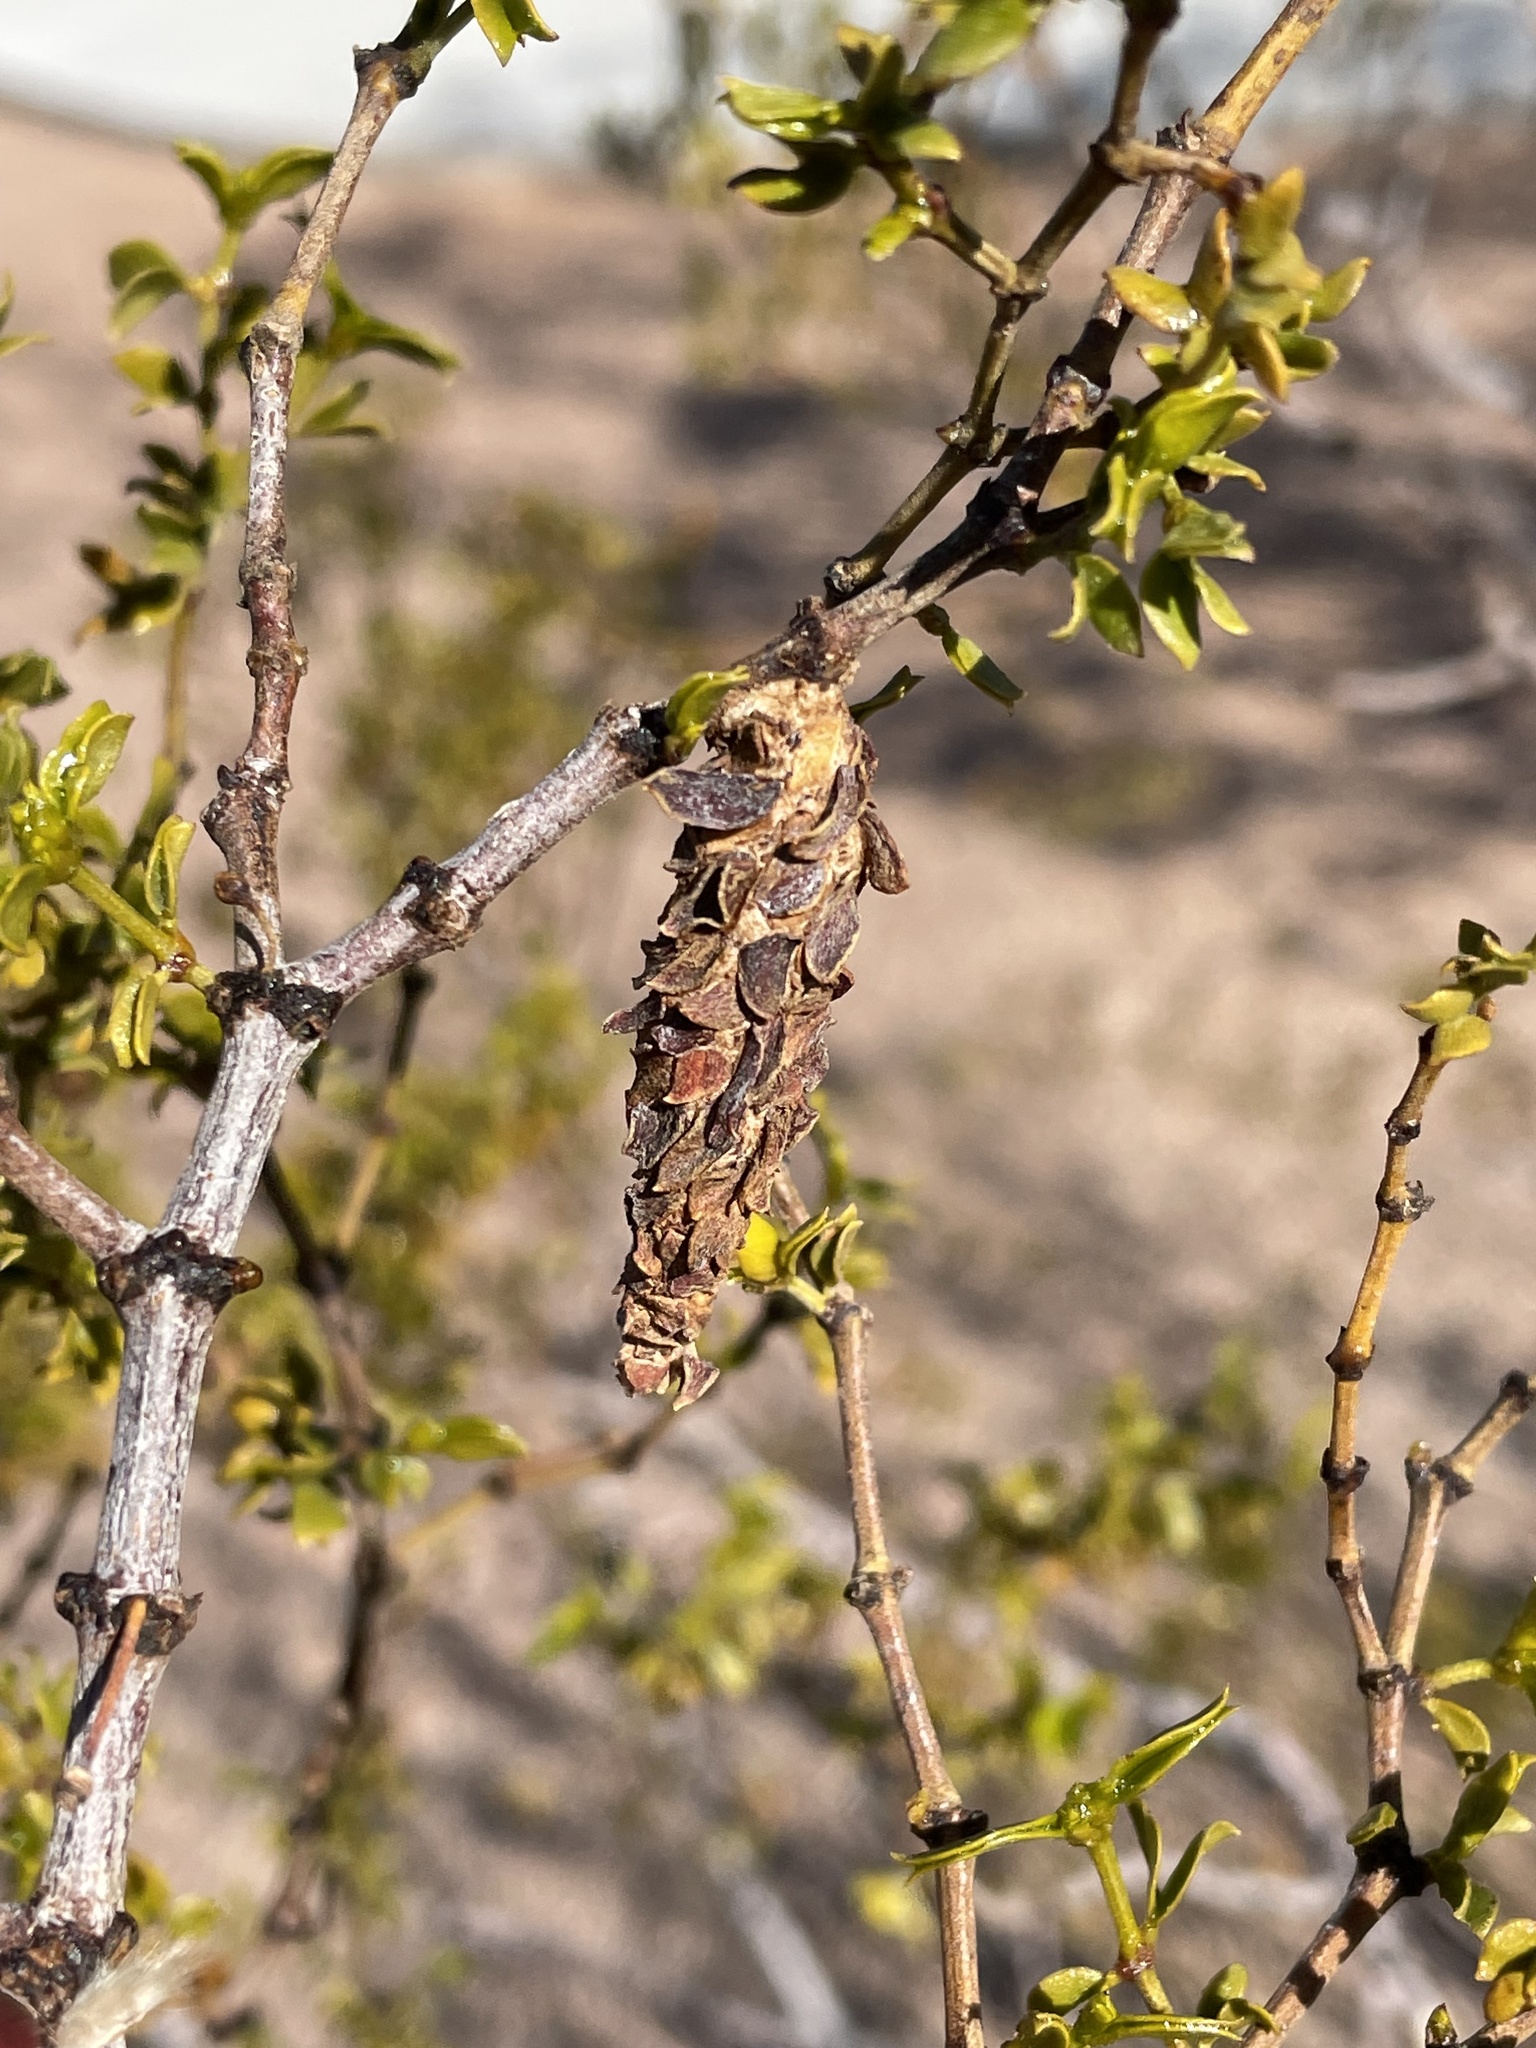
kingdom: Animalia
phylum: Arthropoda
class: Insecta
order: Lepidoptera
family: Psychidae
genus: Thyridopteryx
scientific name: Thyridopteryx meadii
